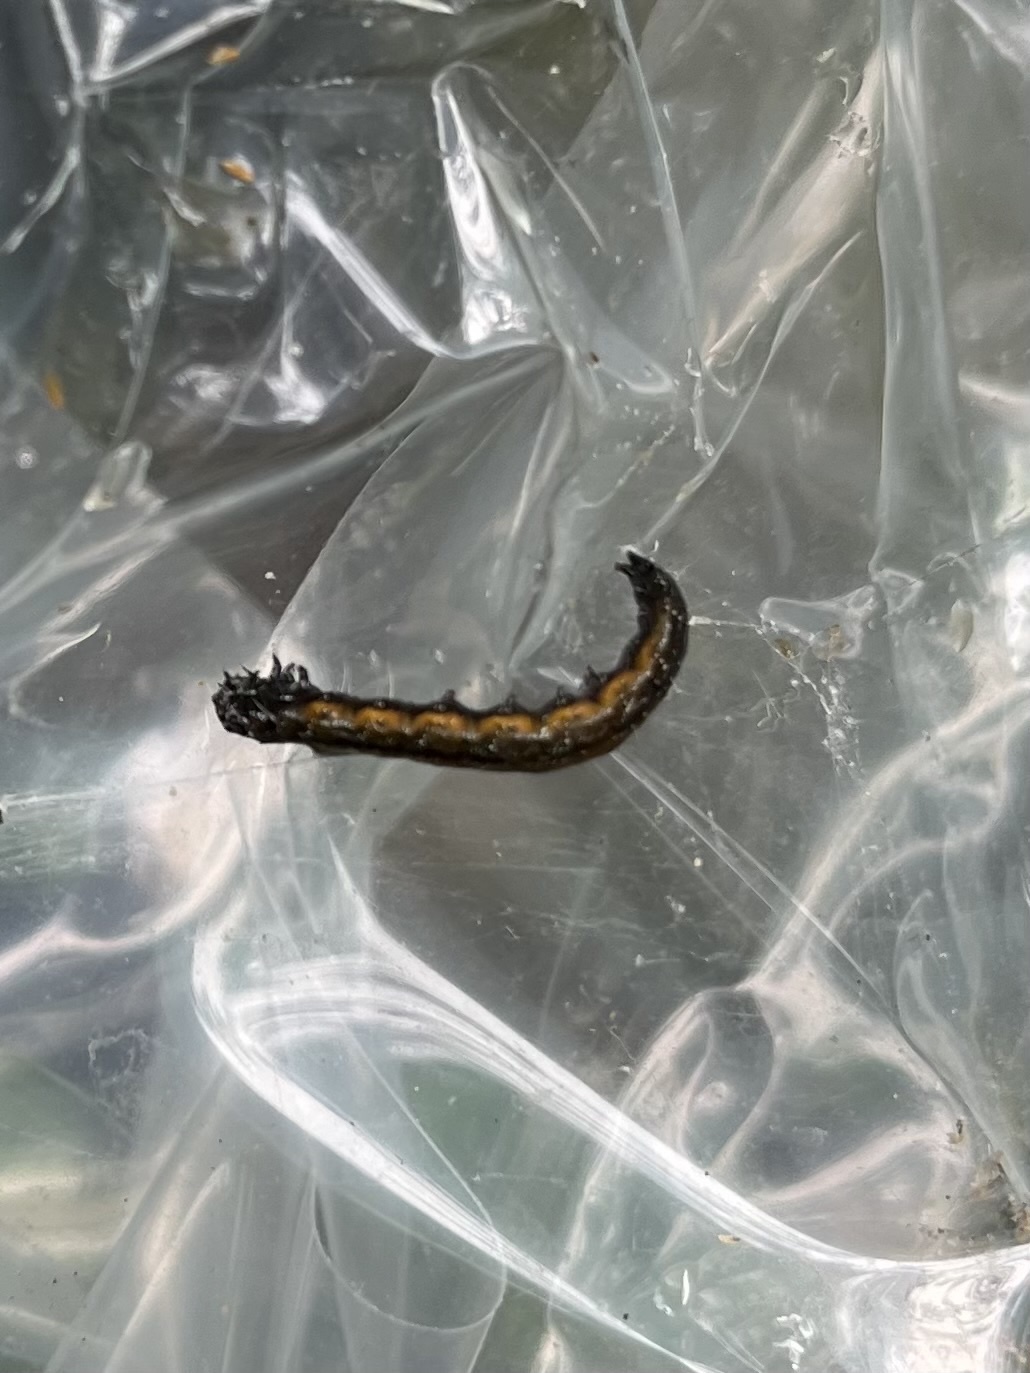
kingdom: Animalia
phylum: Arthropoda
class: Insecta
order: Lepidoptera
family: Attevidae
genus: Atteva
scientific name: Atteva punctella
